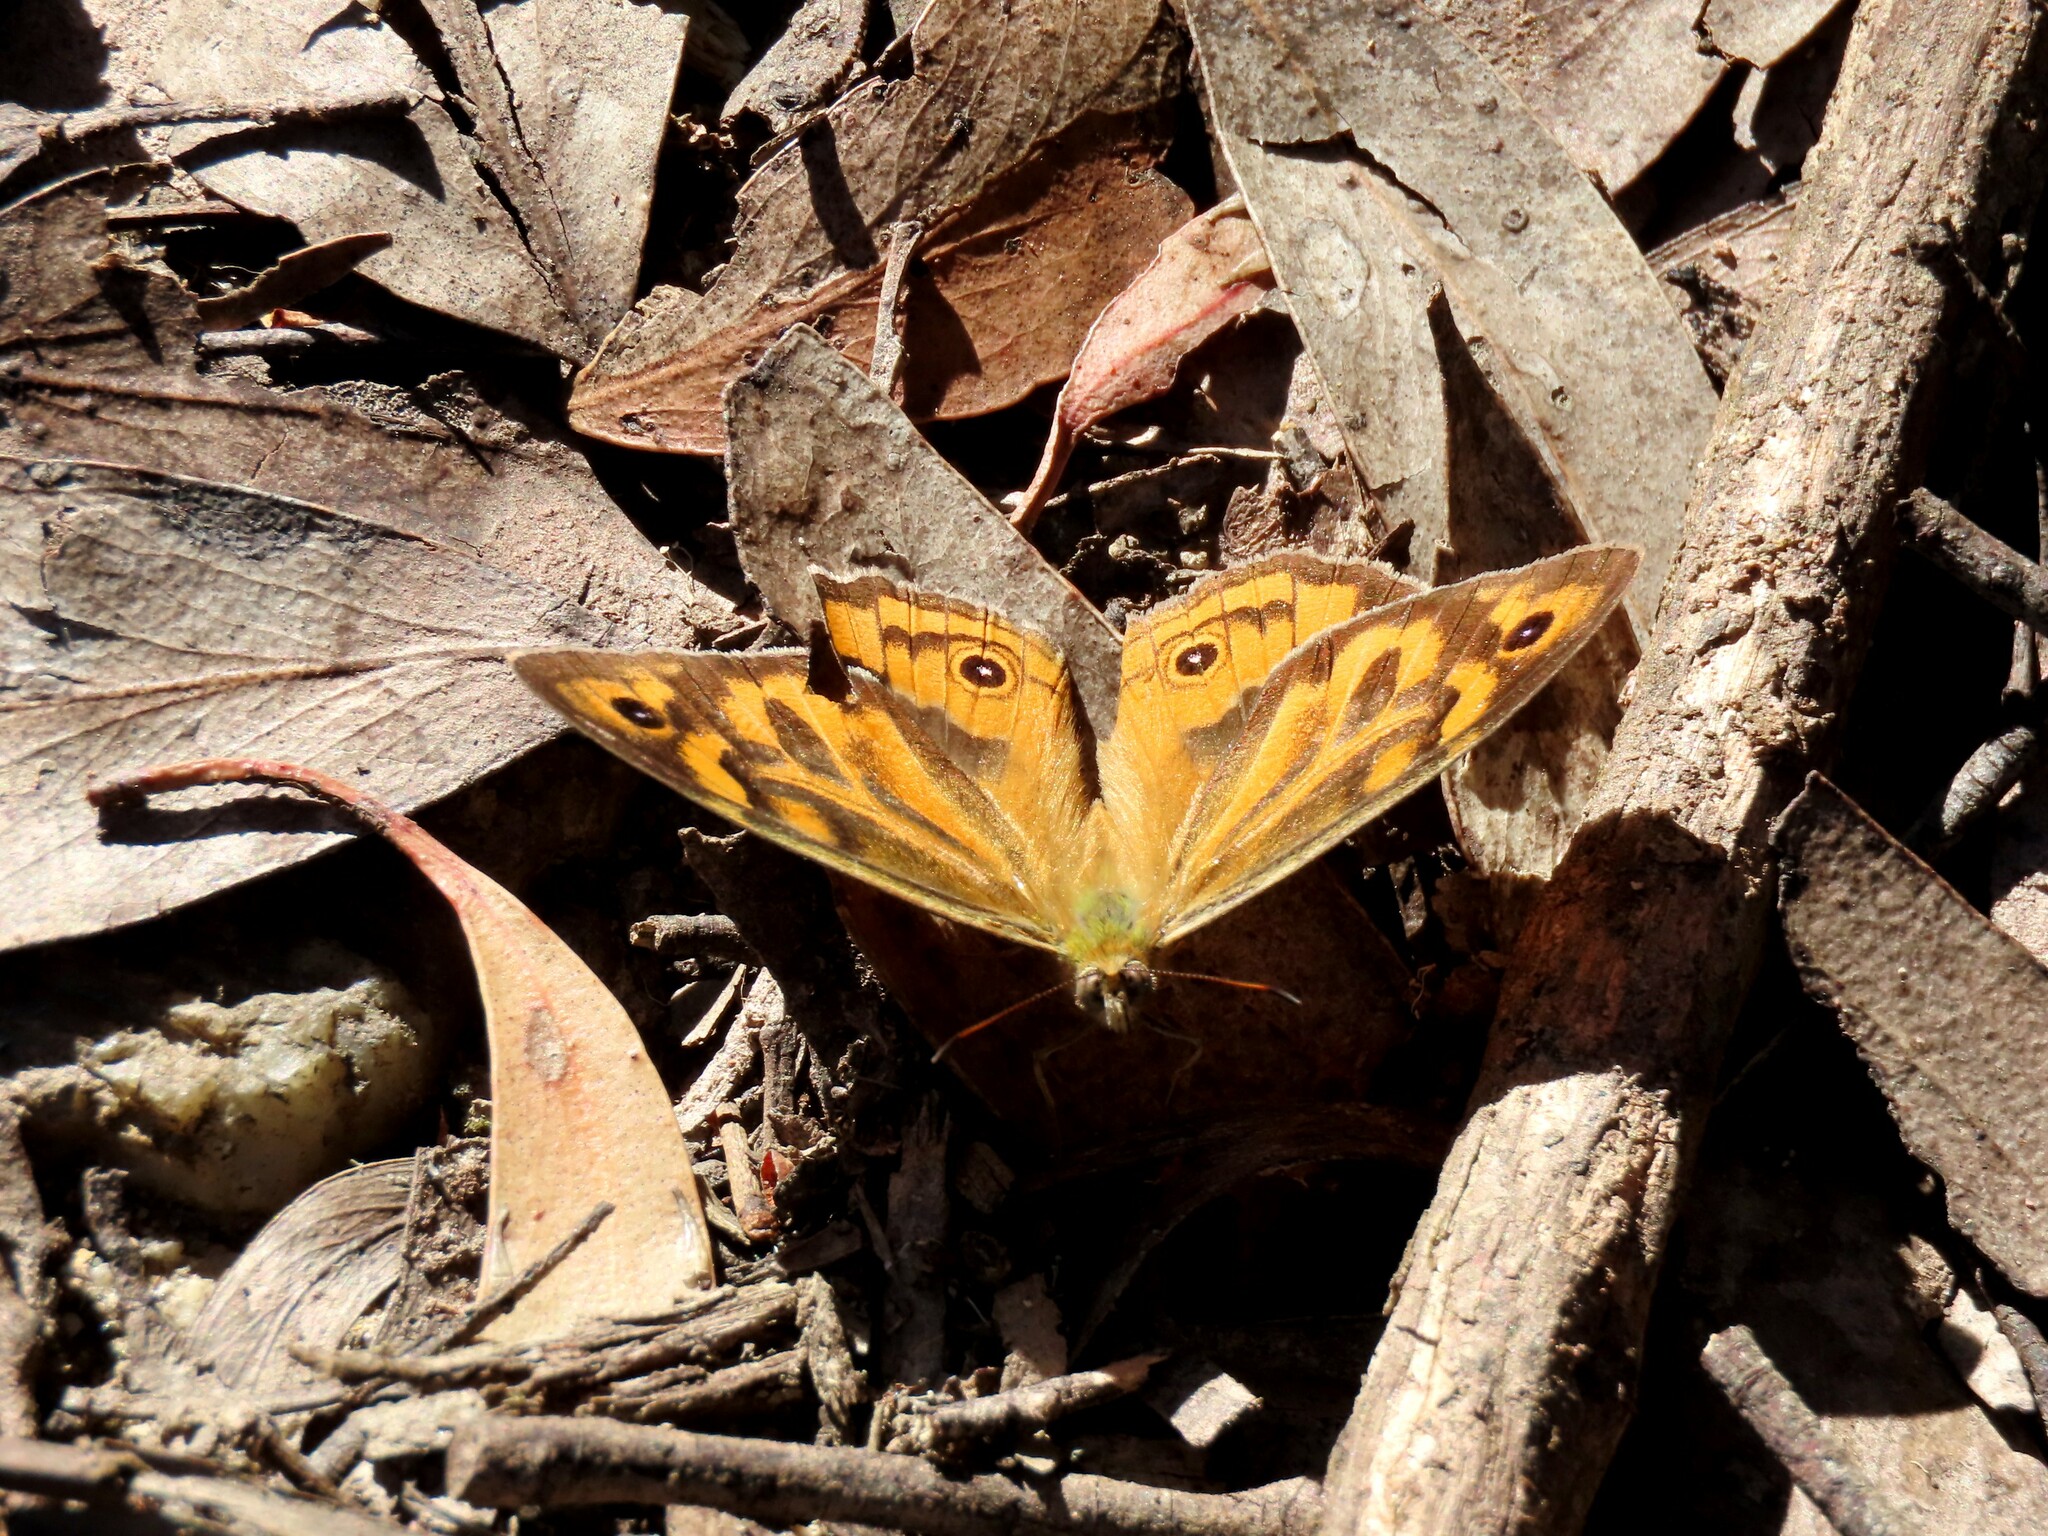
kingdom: Animalia
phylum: Arthropoda
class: Insecta
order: Lepidoptera
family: Nymphalidae
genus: Heteronympha
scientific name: Heteronympha merope
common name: Common brown
